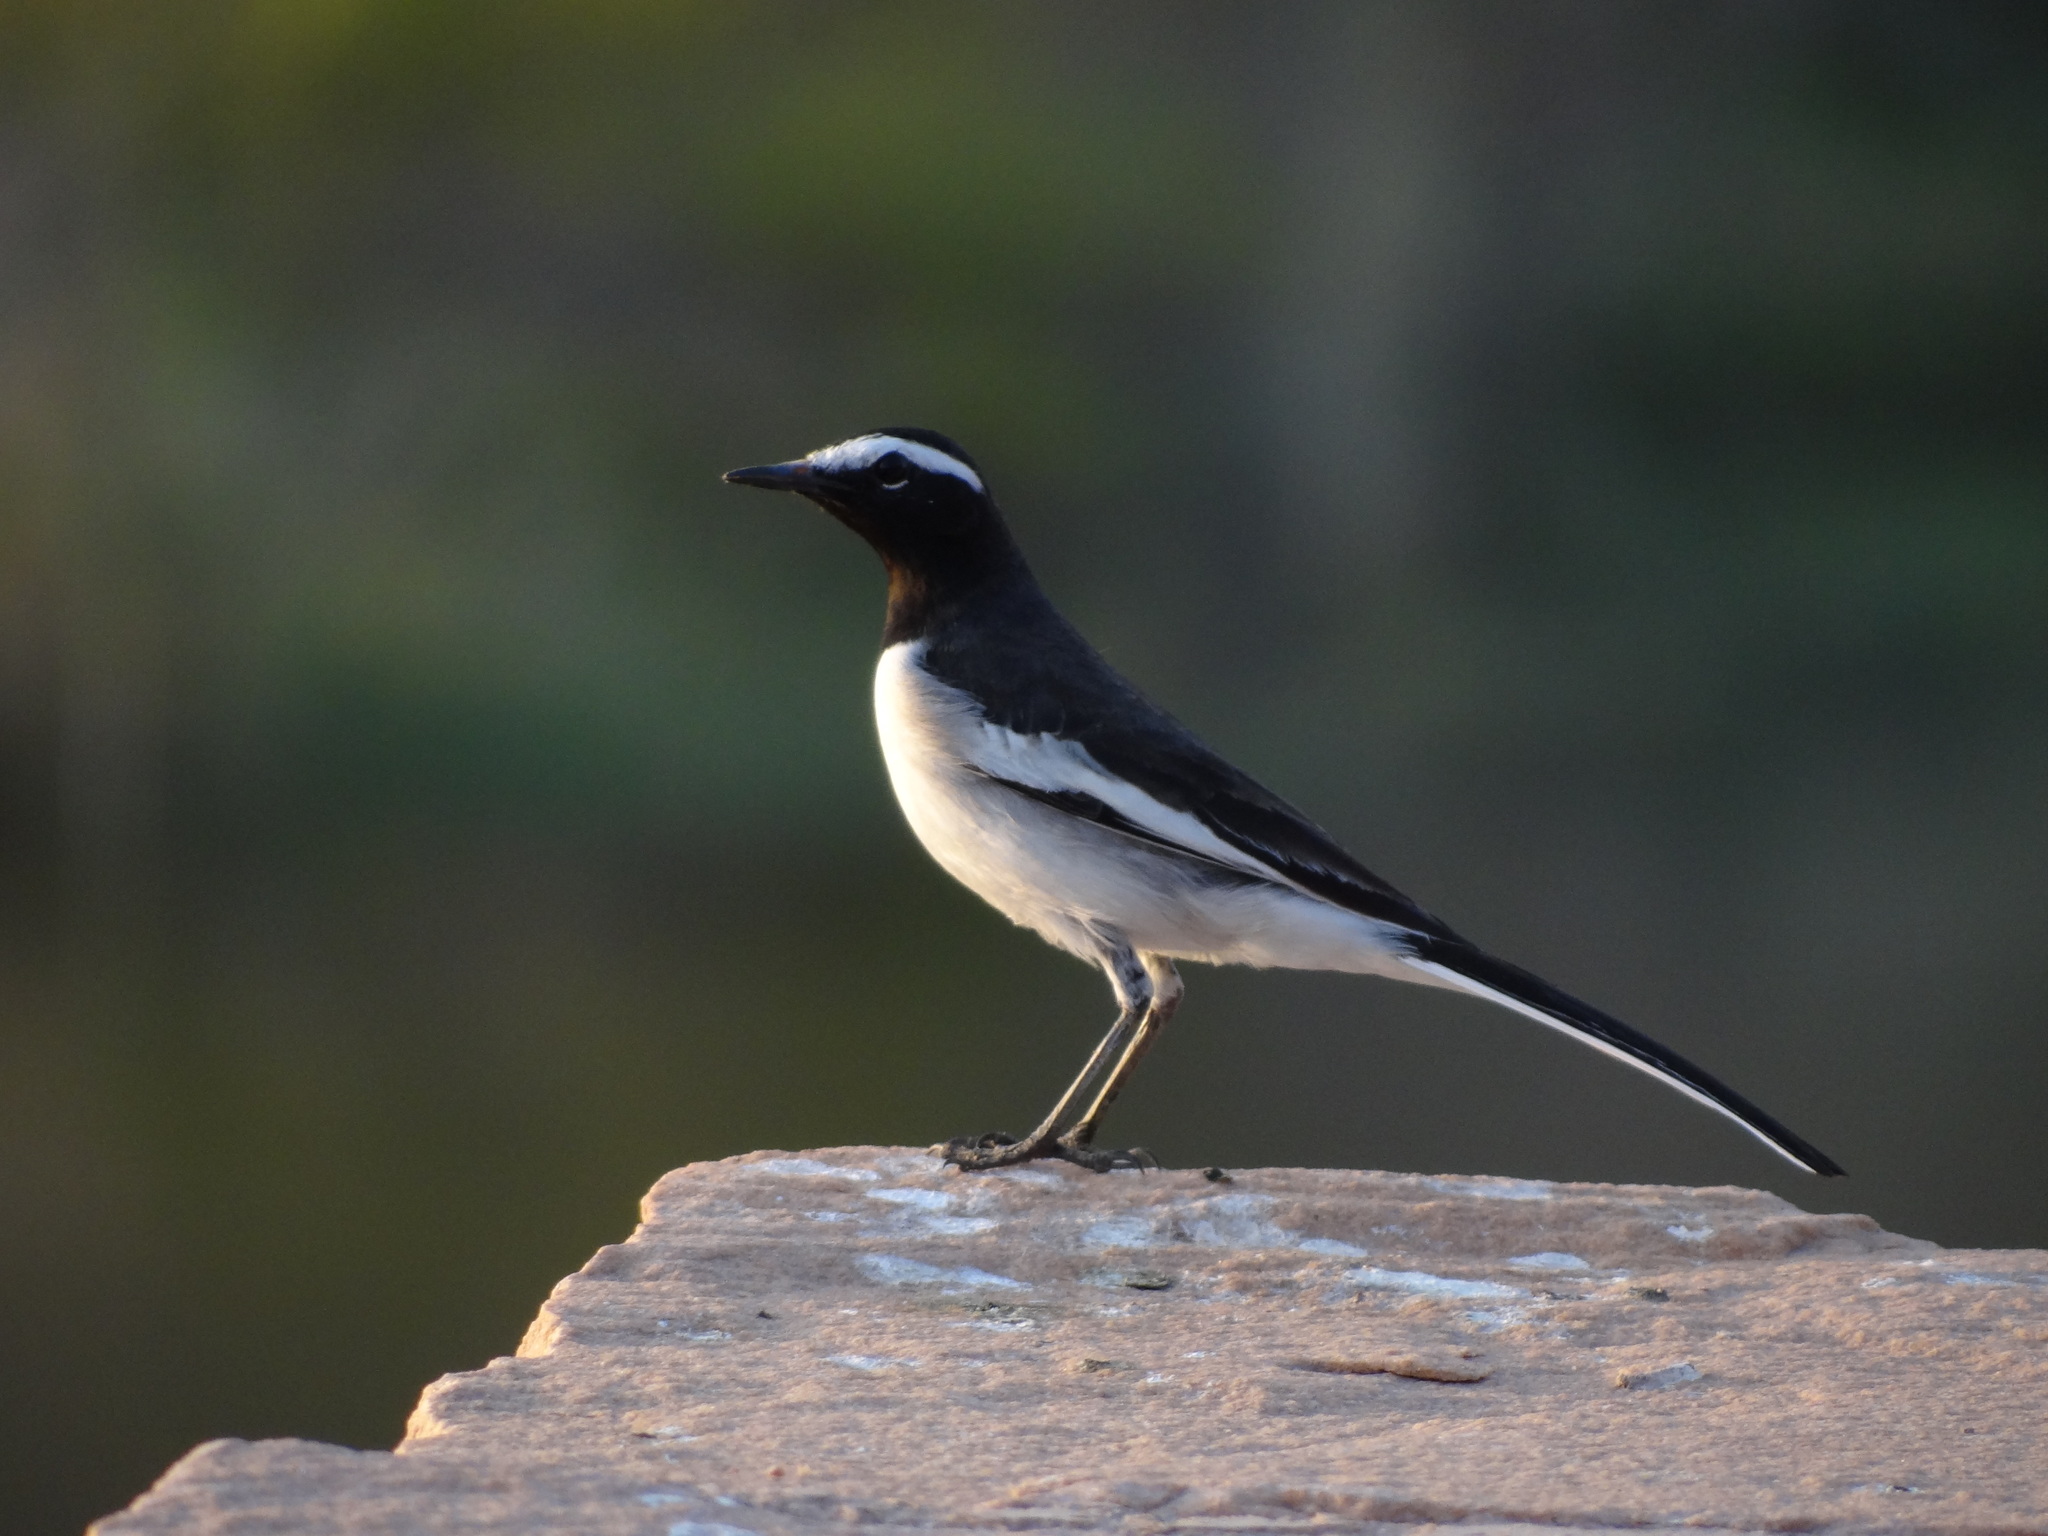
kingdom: Animalia
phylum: Chordata
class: Aves
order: Passeriformes
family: Motacillidae
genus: Motacilla
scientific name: Motacilla maderaspatensis
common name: White-browed wagtail
